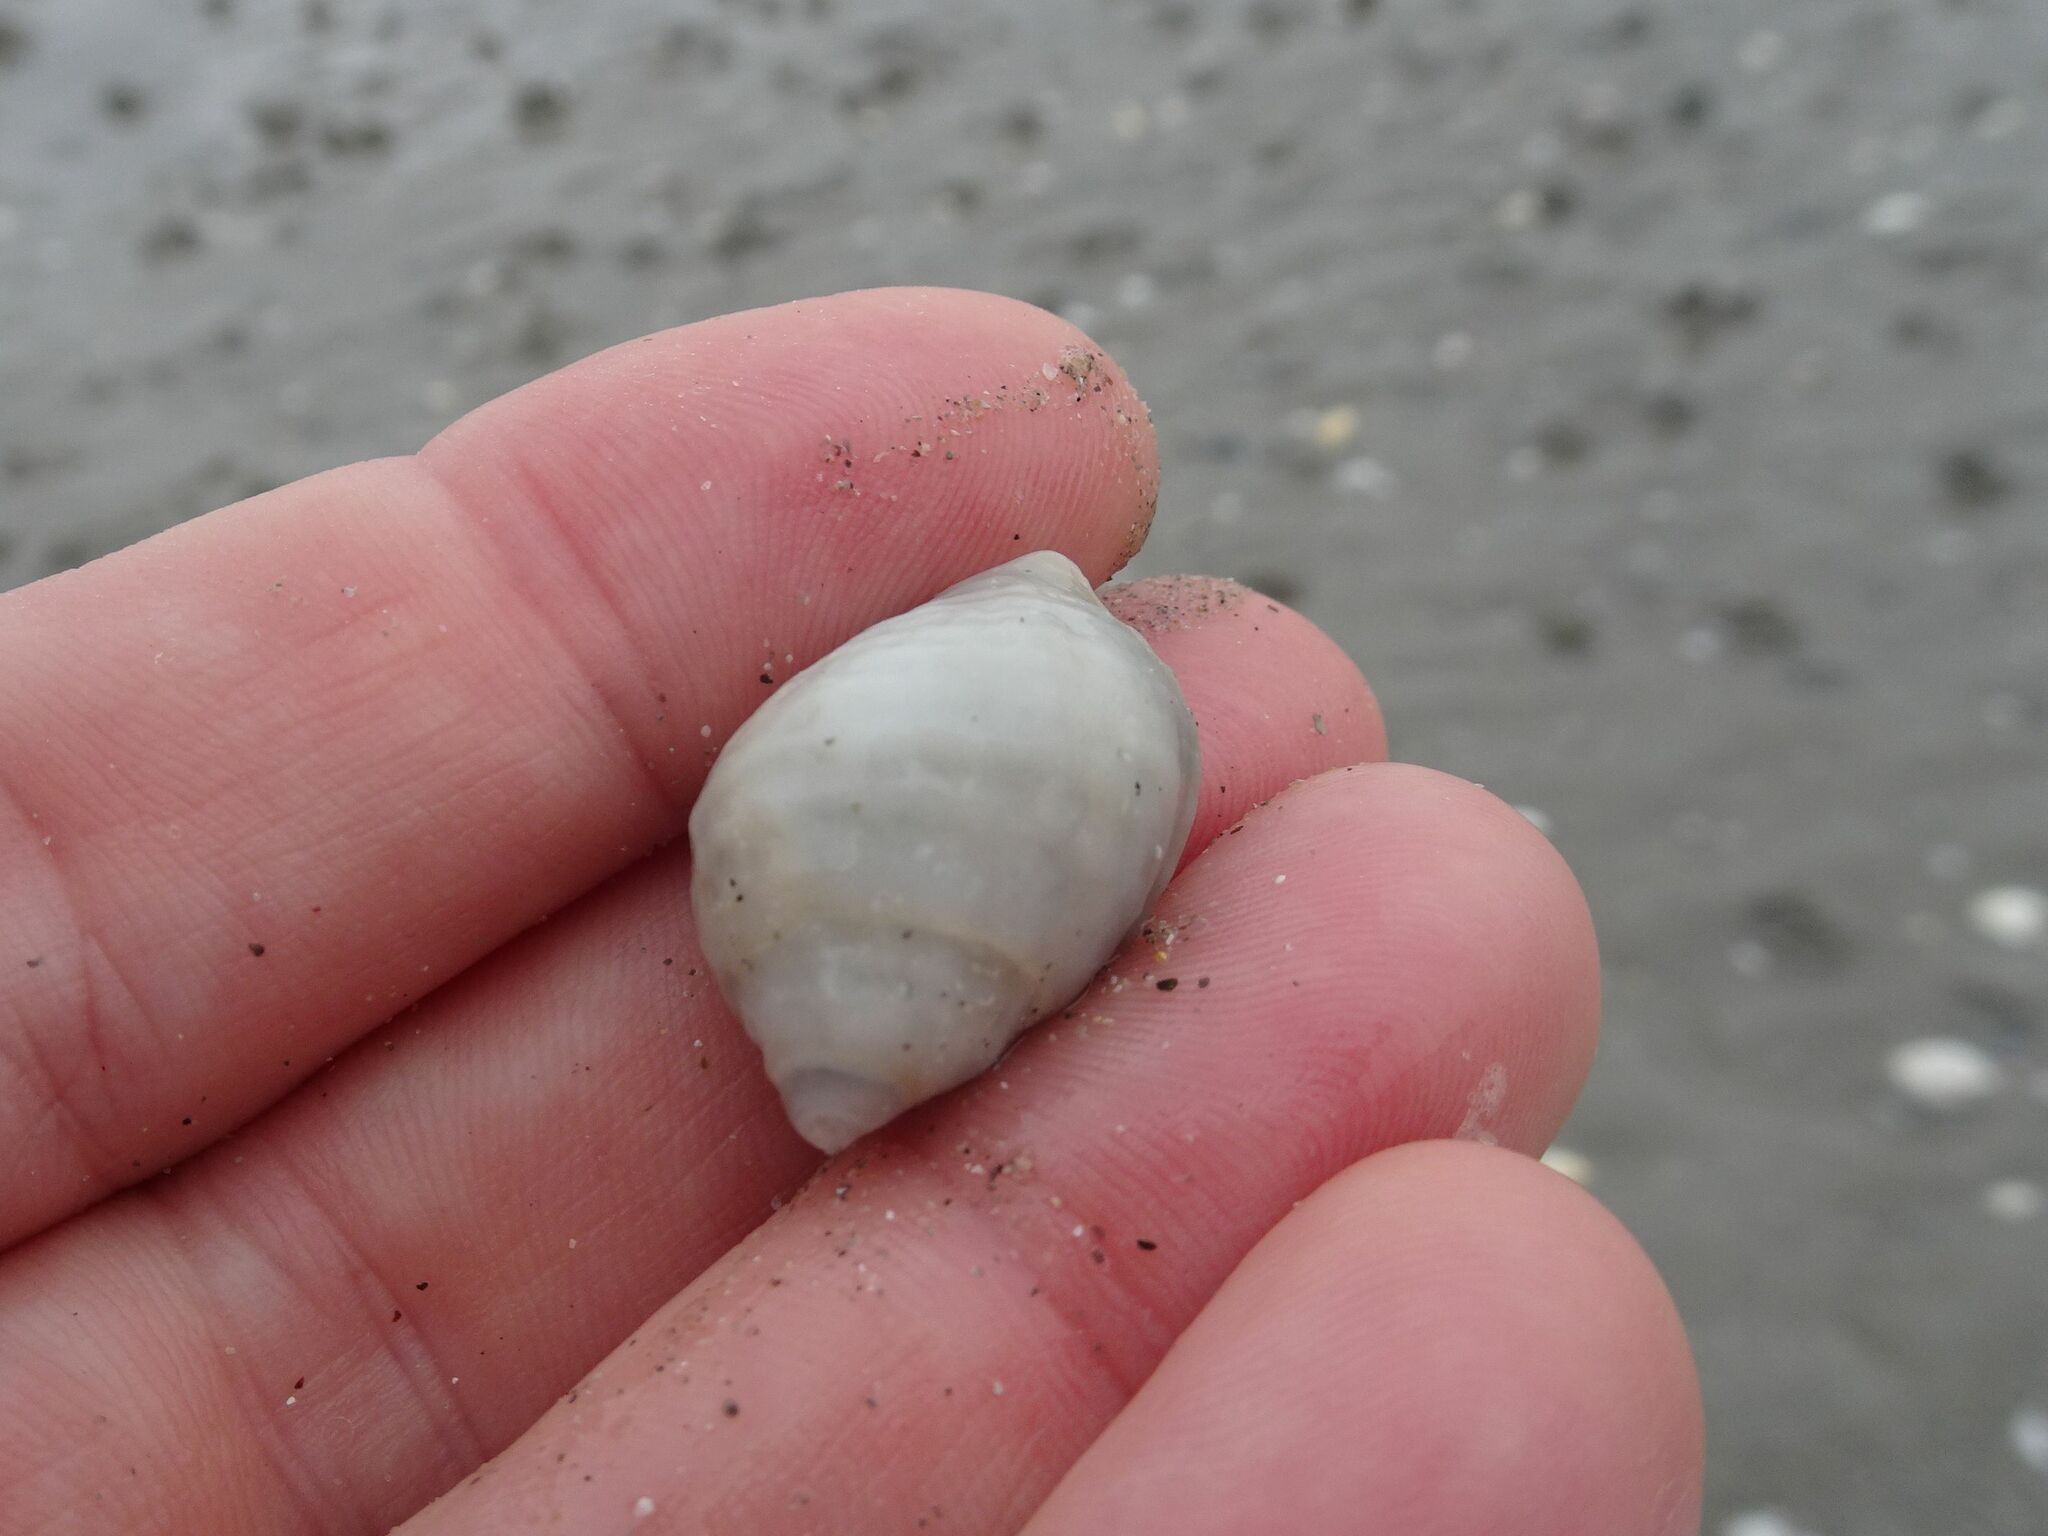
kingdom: Animalia
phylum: Mollusca
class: Gastropoda
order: Neogastropoda
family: Muricidae
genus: Nucella
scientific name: Nucella lapillus
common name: Dog whelk
